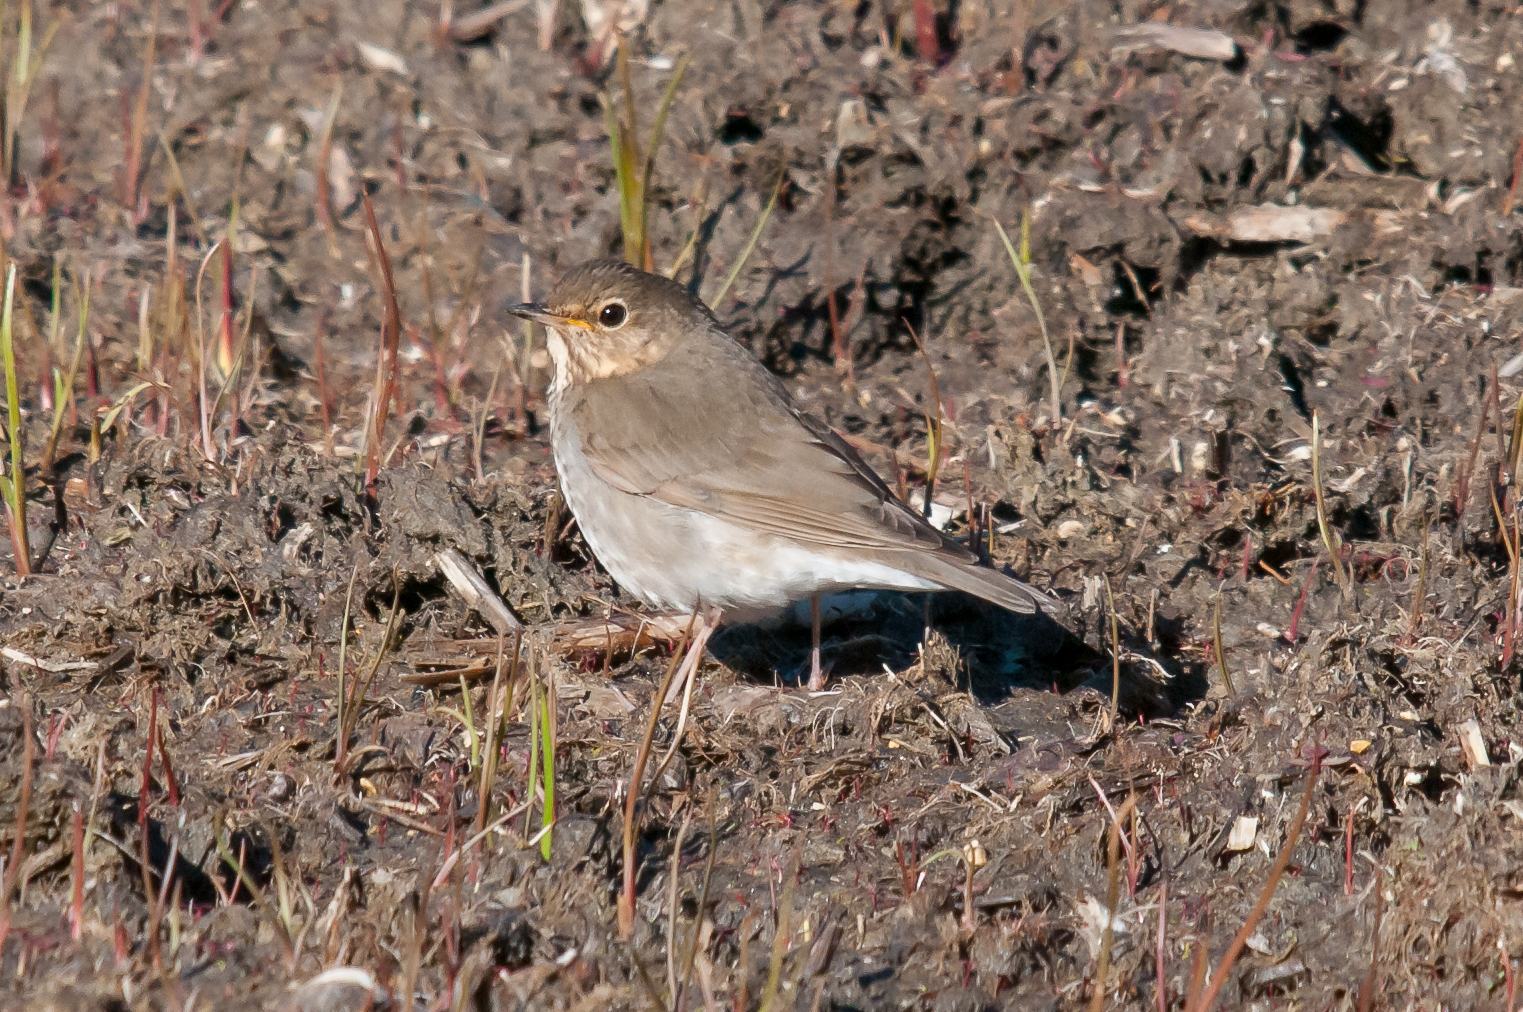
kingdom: Animalia
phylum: Chordata
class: Aves
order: Passeriformes
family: Turdidae
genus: Catharus
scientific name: Catharus ustulatus
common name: Swainson's thrush
